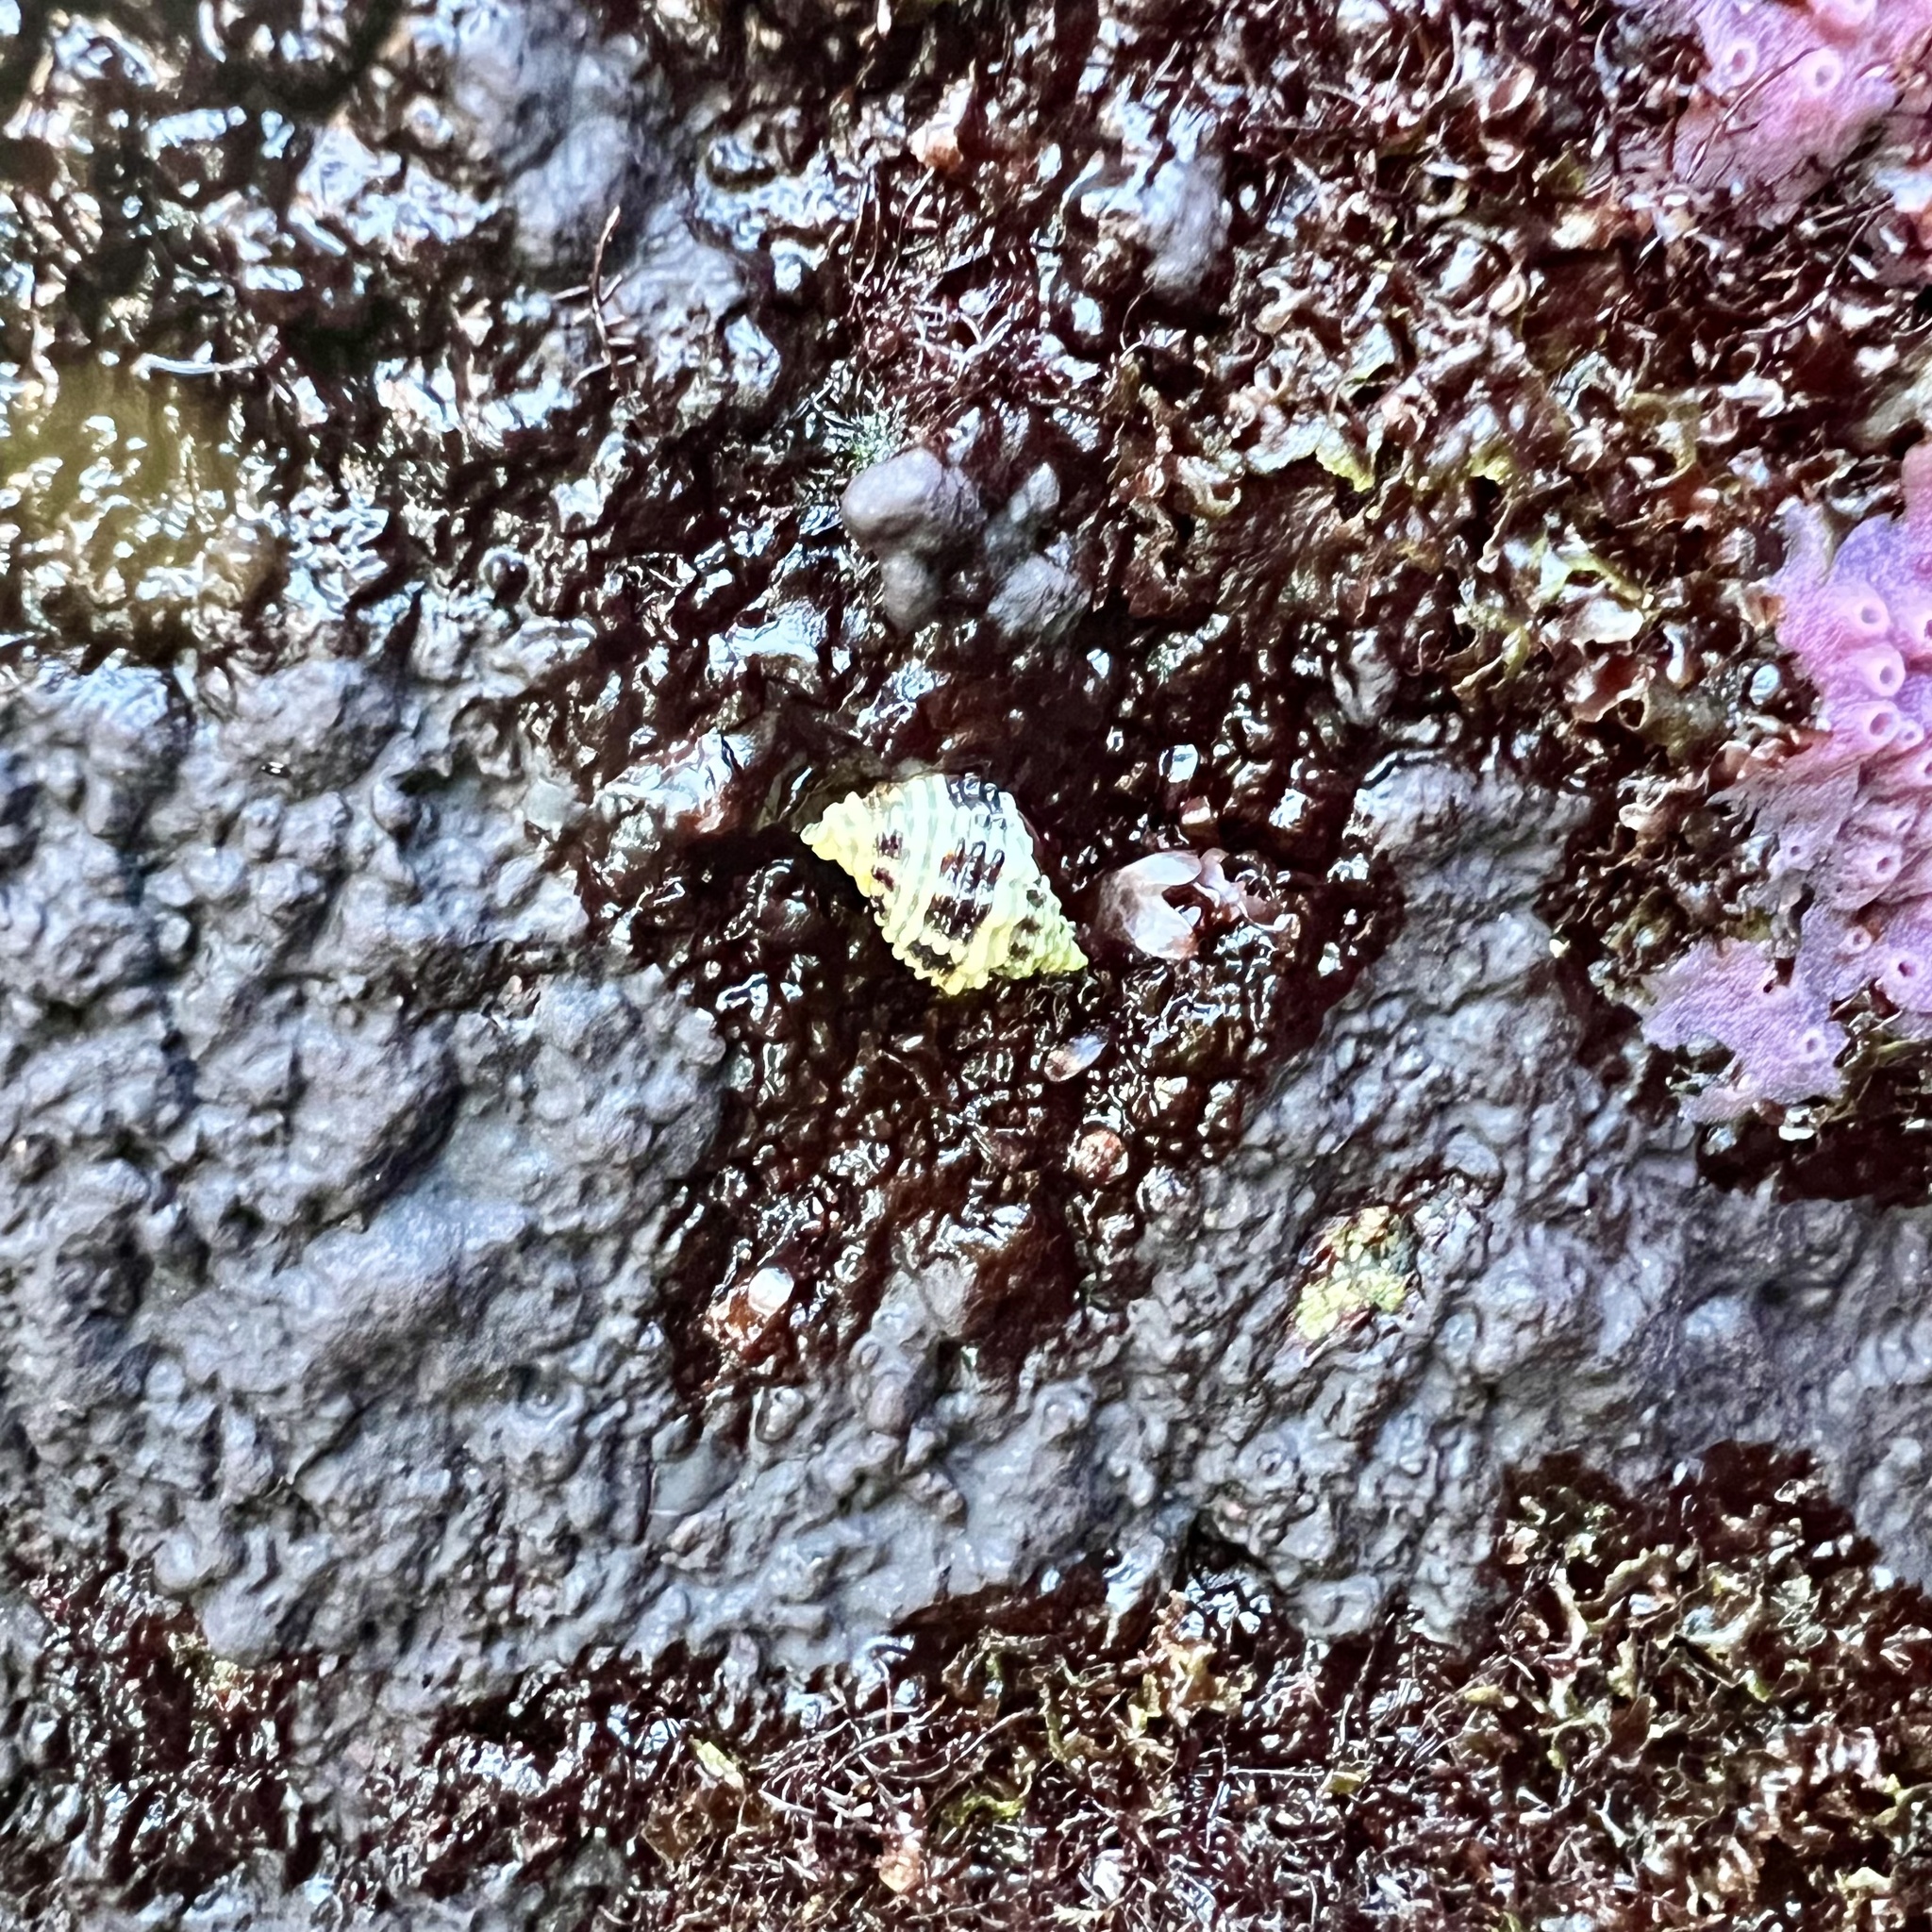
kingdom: Animalia
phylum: Mollusca
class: Gastropoda
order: Neogastropoda
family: Muricidae
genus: Paciocinebrina
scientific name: Paciocinebrina circumtexta
